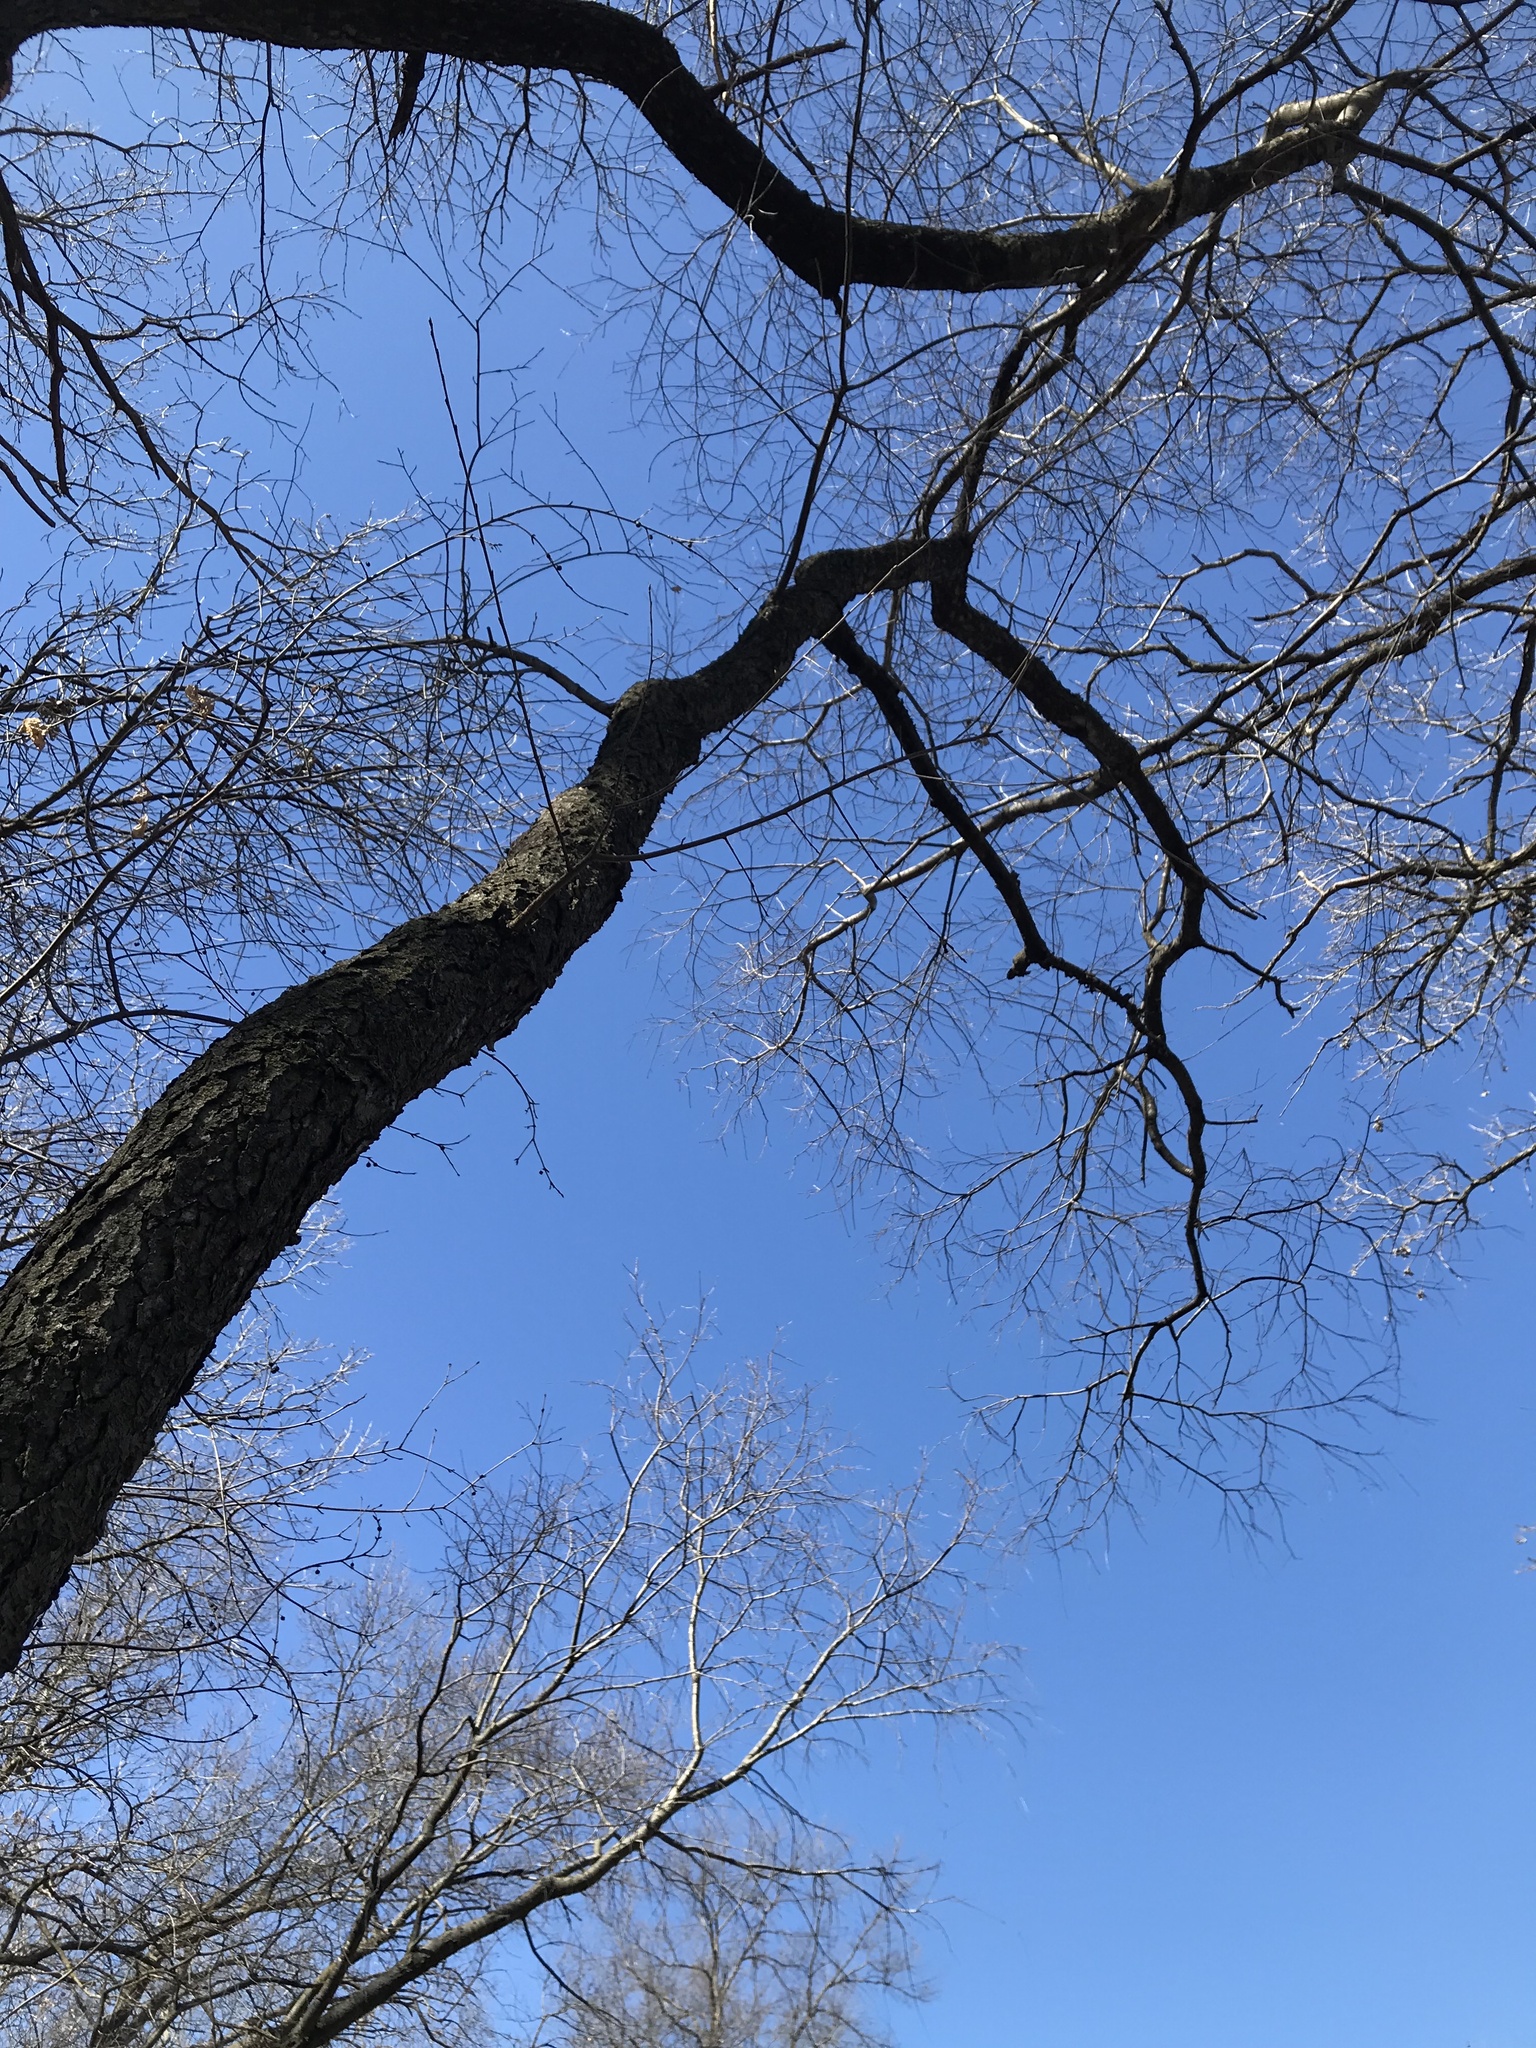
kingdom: Plantae
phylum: Tracheophyta
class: Magnoliopsida
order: Rosales
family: Rosaceae
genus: Prunus
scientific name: Prunus serotina
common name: Black cherry
